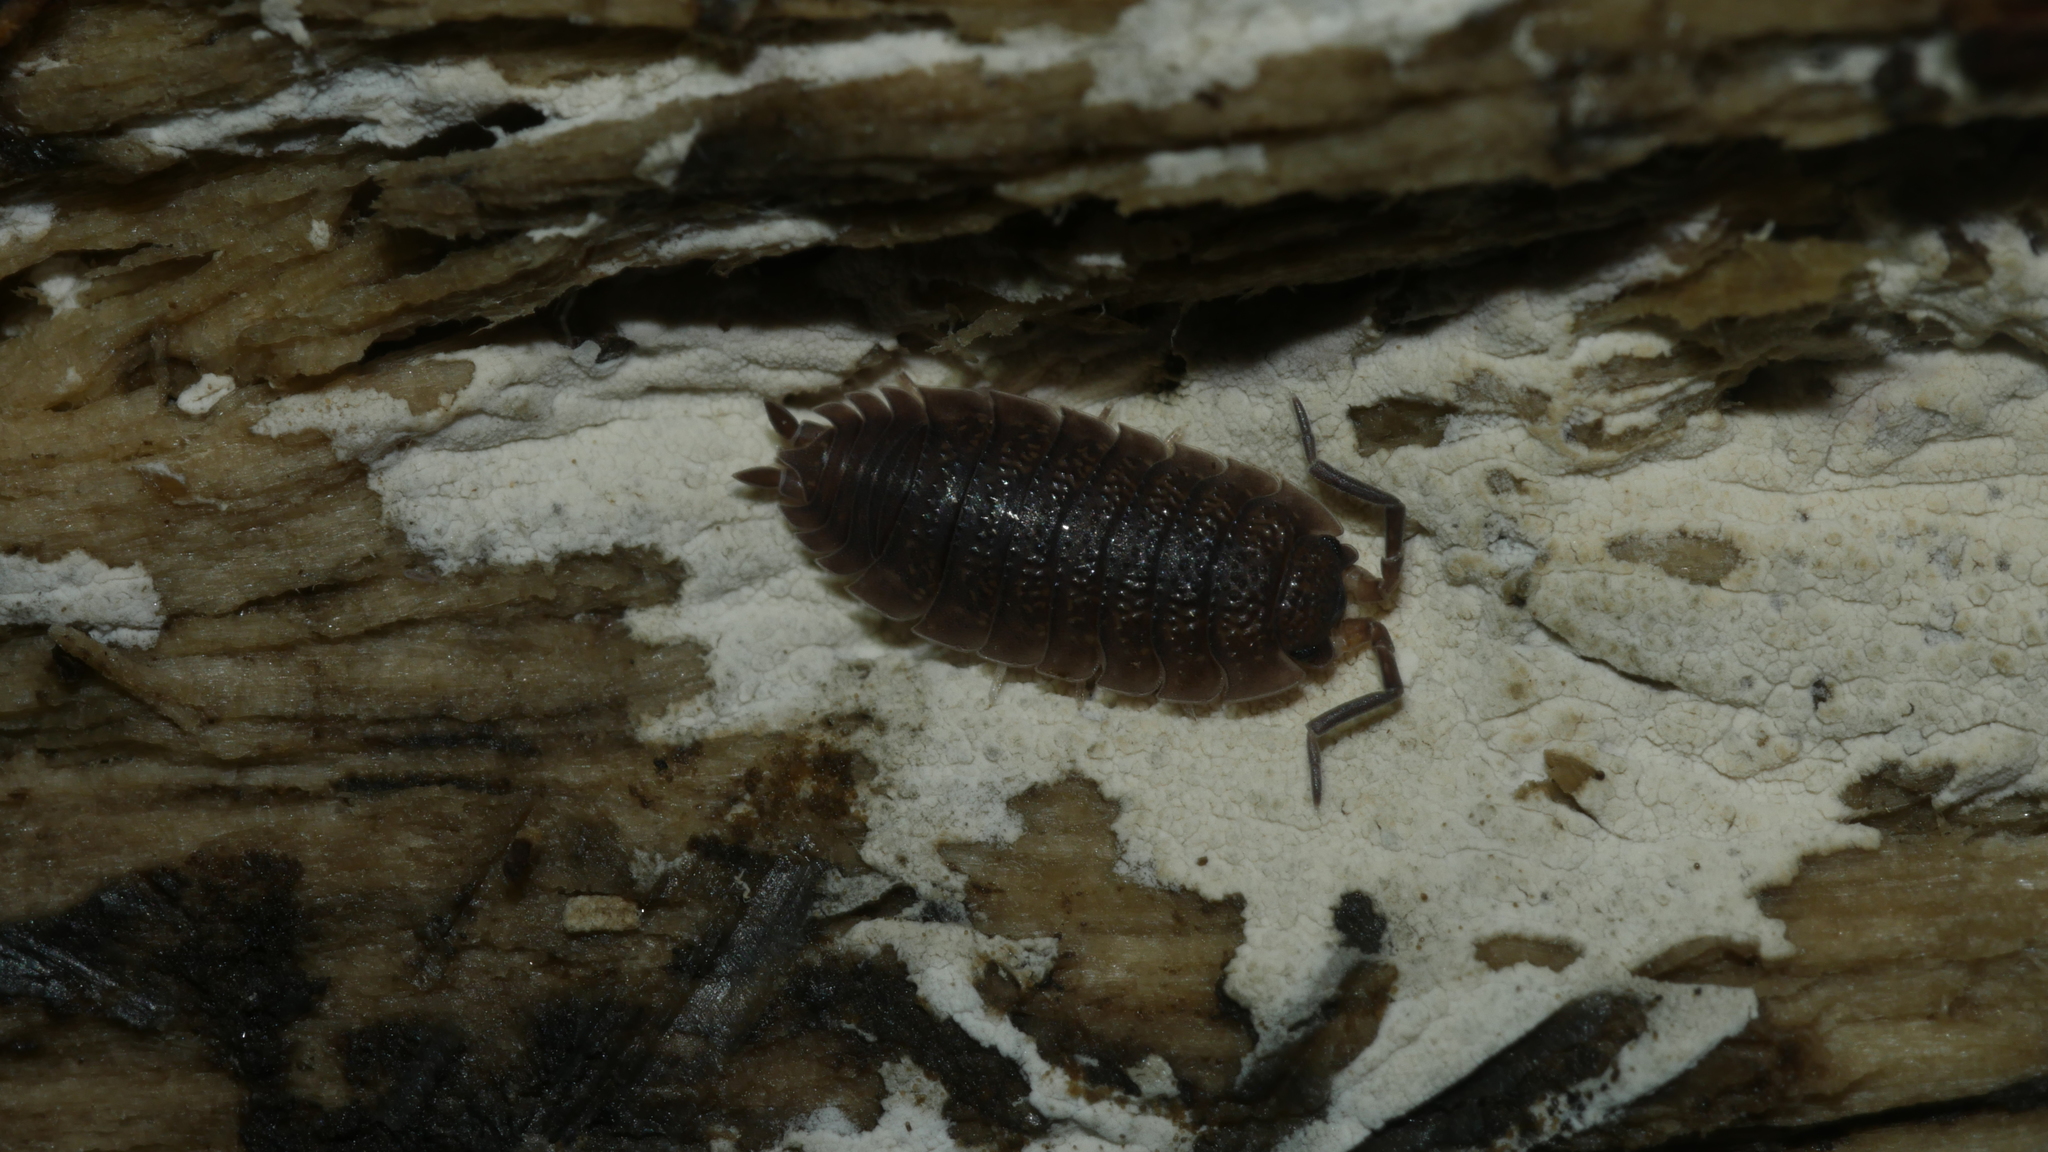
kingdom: Animalia
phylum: Arthropoda
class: Malacostraca
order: Isopoda
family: Porcellionidae
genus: Porcellio
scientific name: Porcellio scaber
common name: Common rough woodlouse
